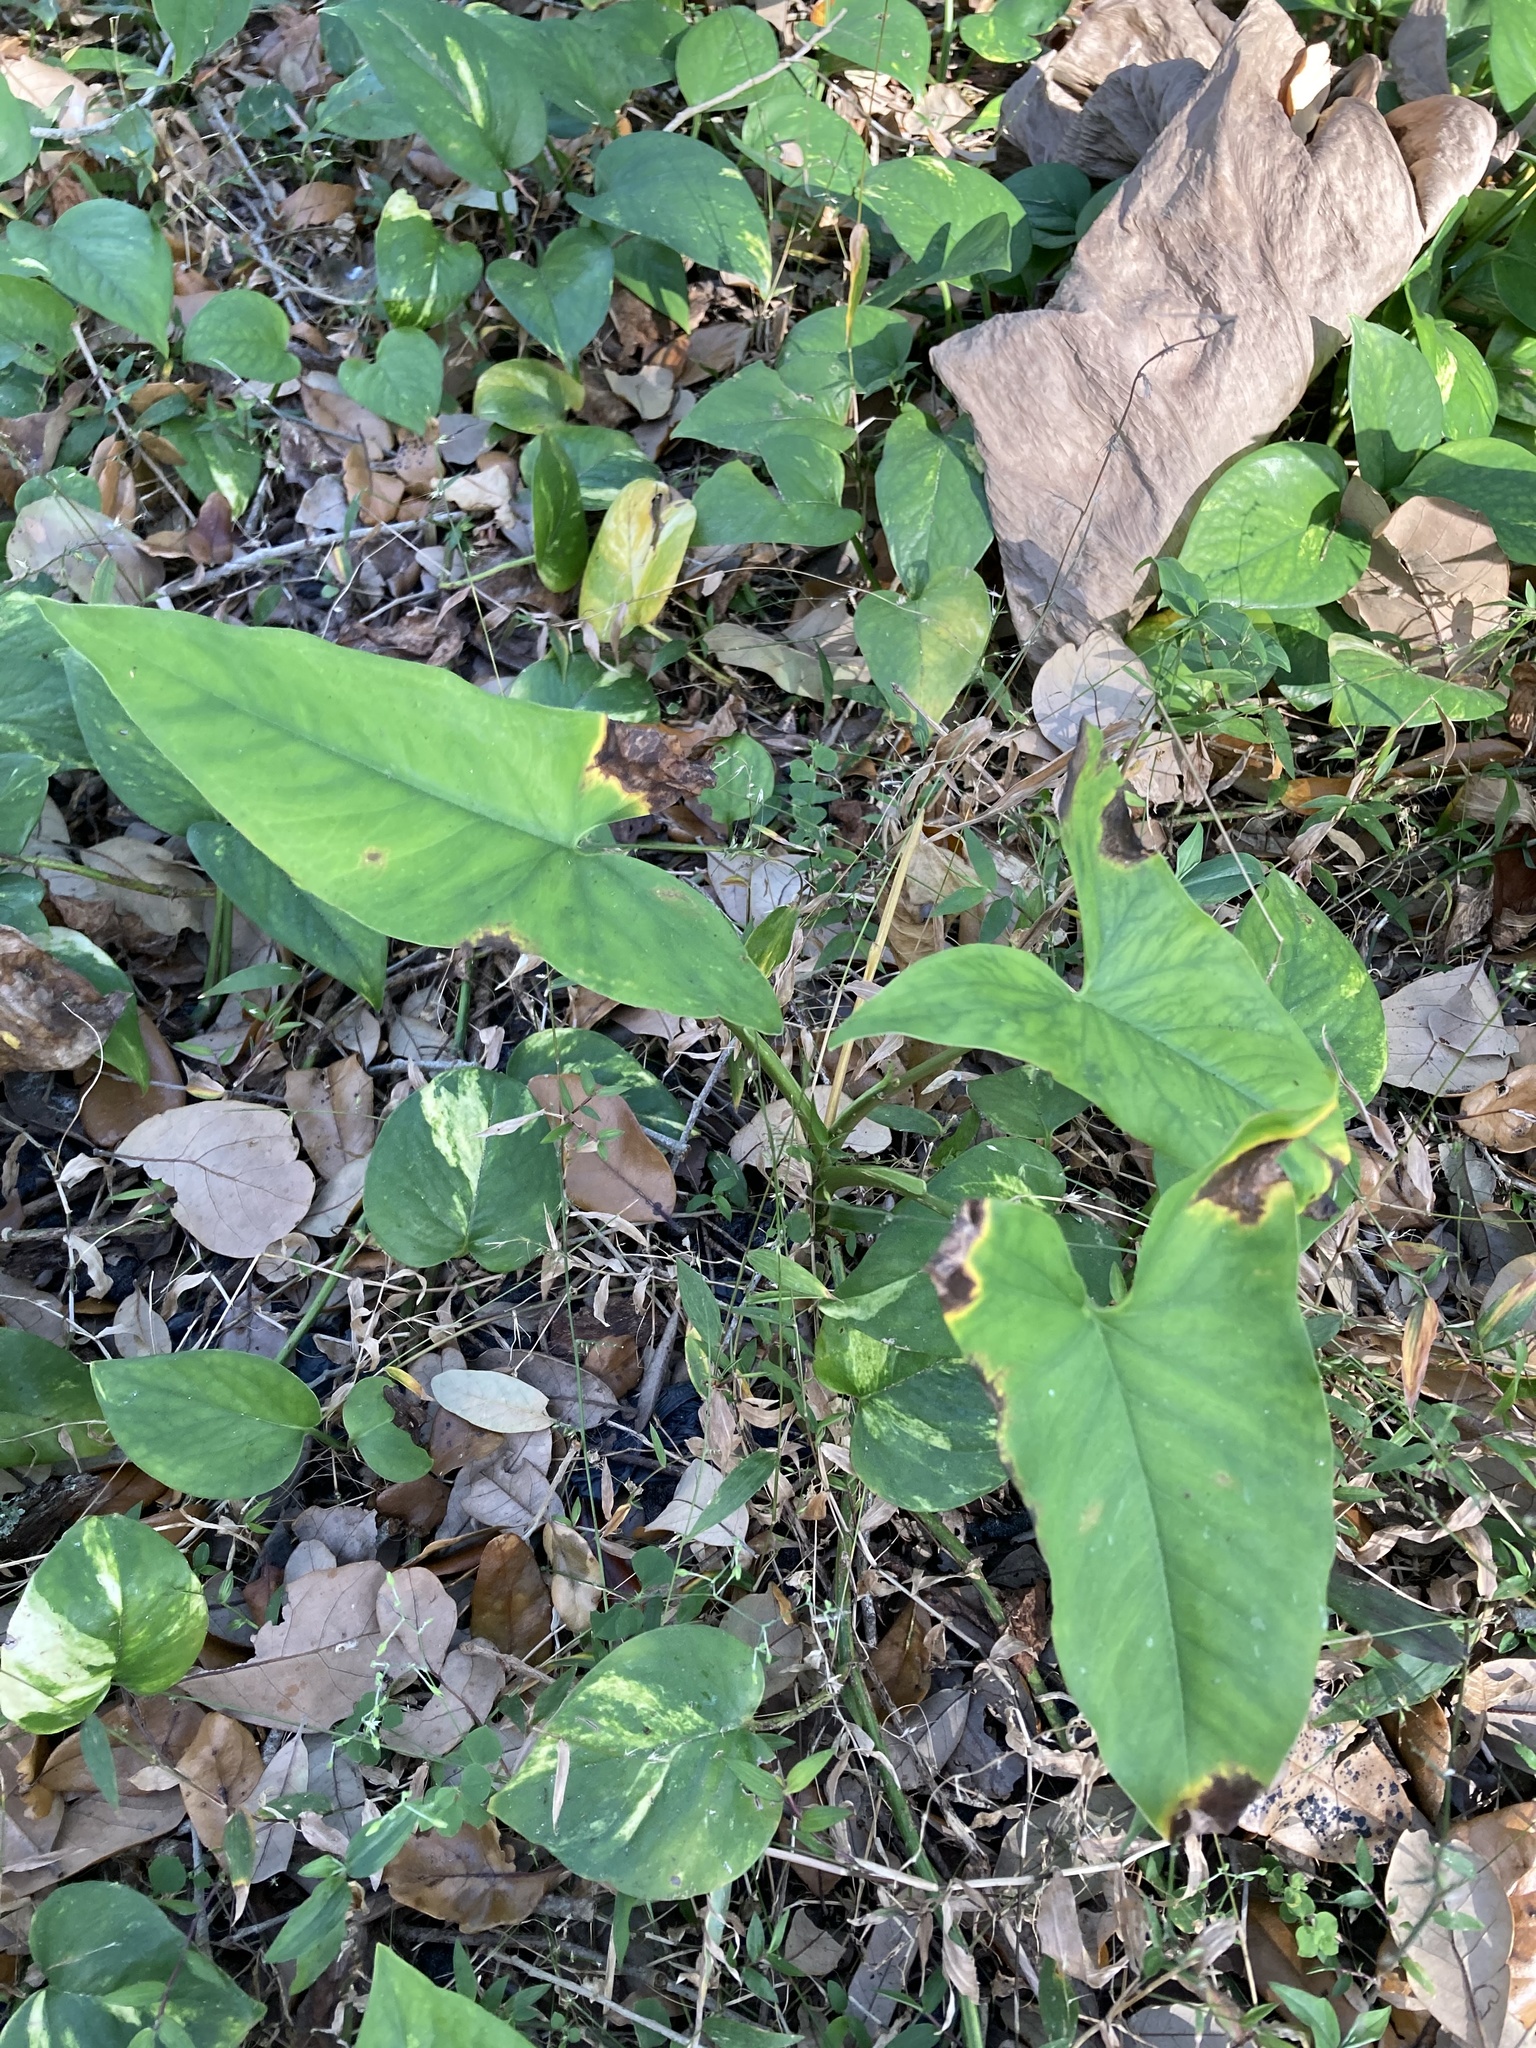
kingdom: Plantae
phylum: Tracheophyta
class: Liliopsida
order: Alismatales
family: Araceae
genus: Syngonium
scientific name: Syngonium podophyllum
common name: American evergreen
